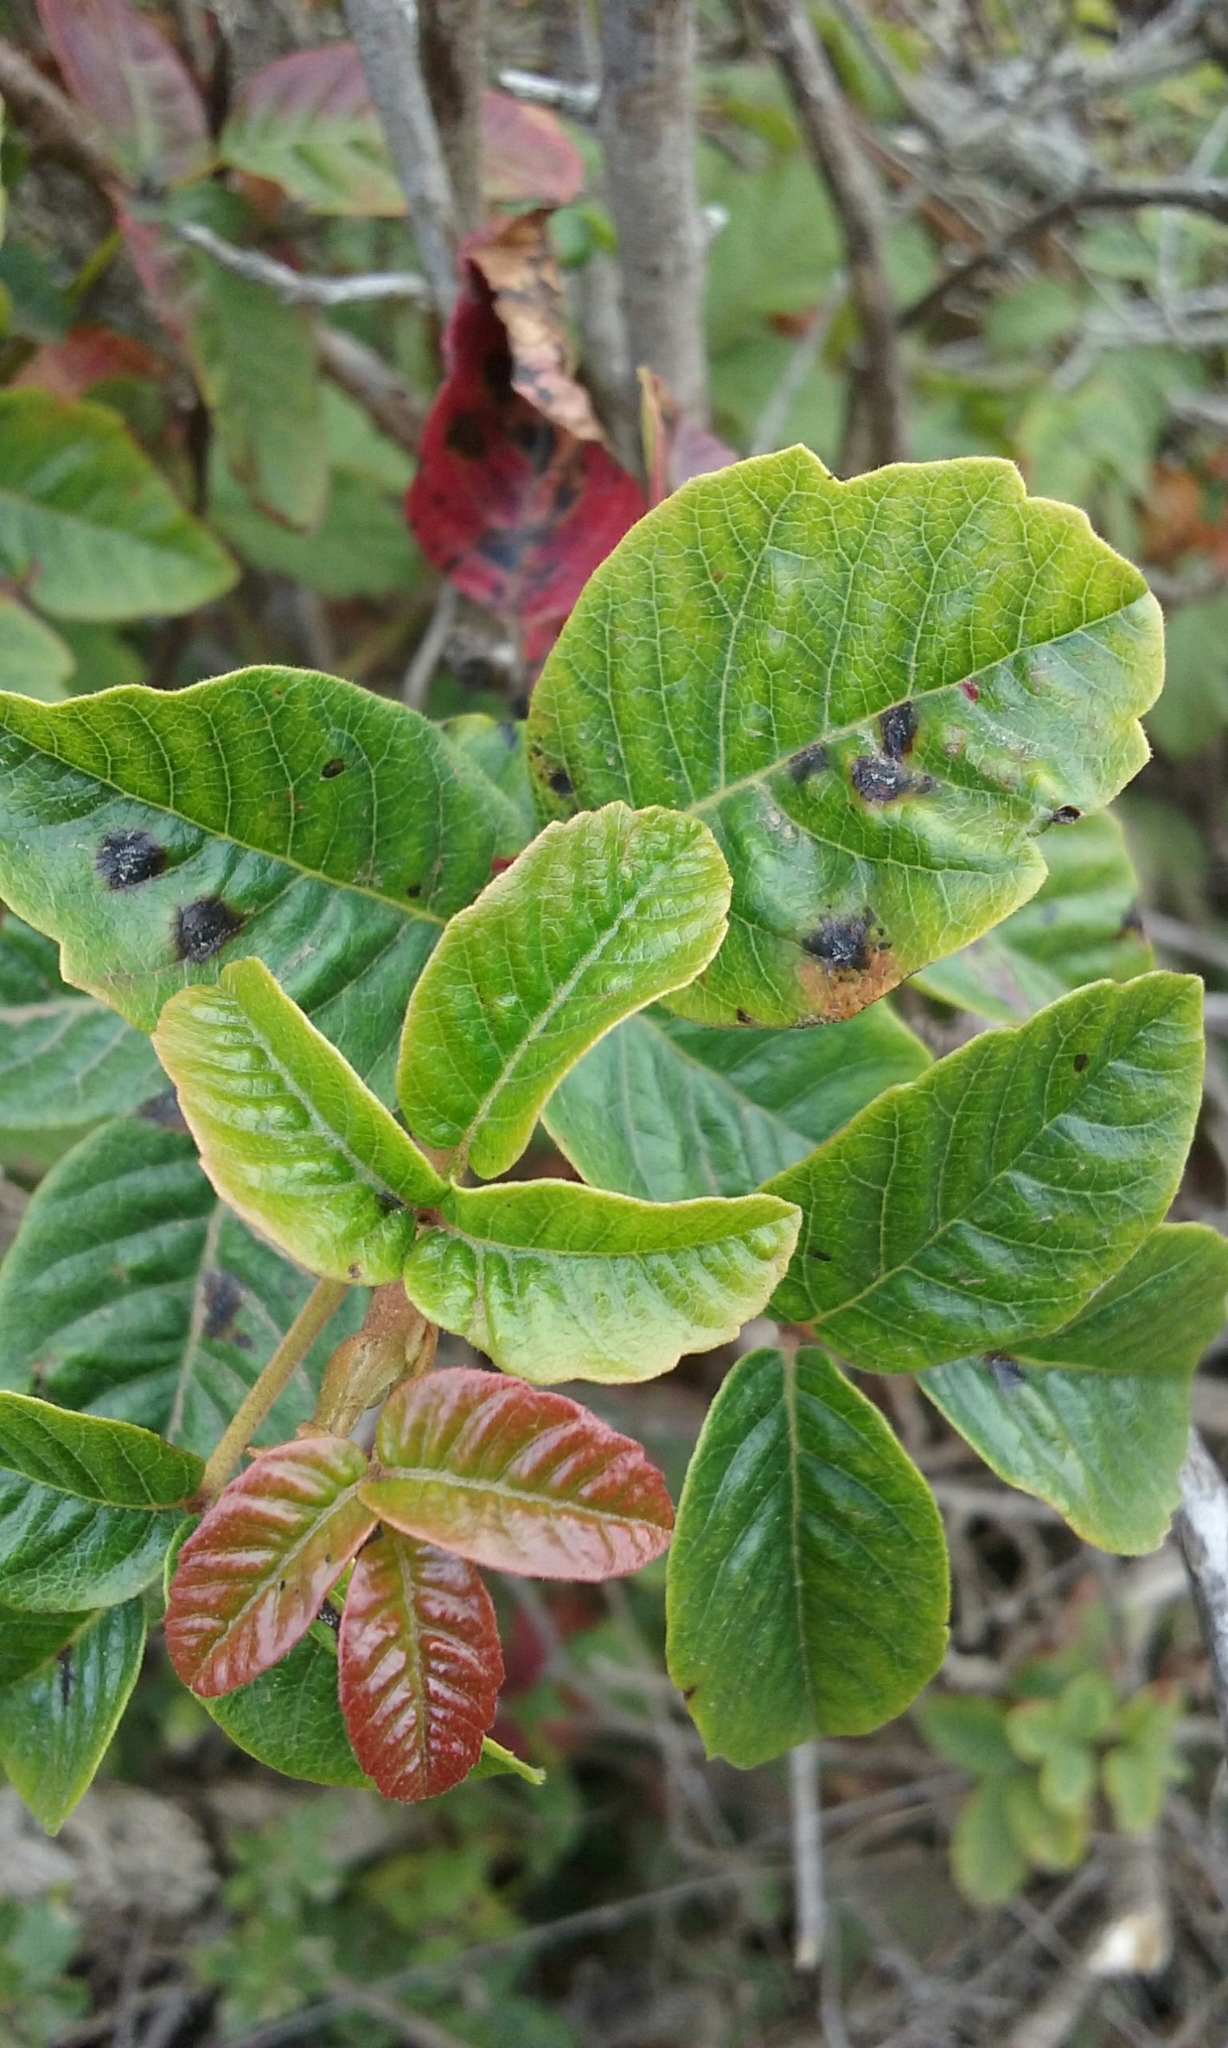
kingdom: Plantae
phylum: Tracheophyta
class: Magnoliopsida
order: Sapindales
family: Anacardiaceae
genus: Toxicodendron
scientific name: Toxicodendron diversilobum
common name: Pacific poison-oak
